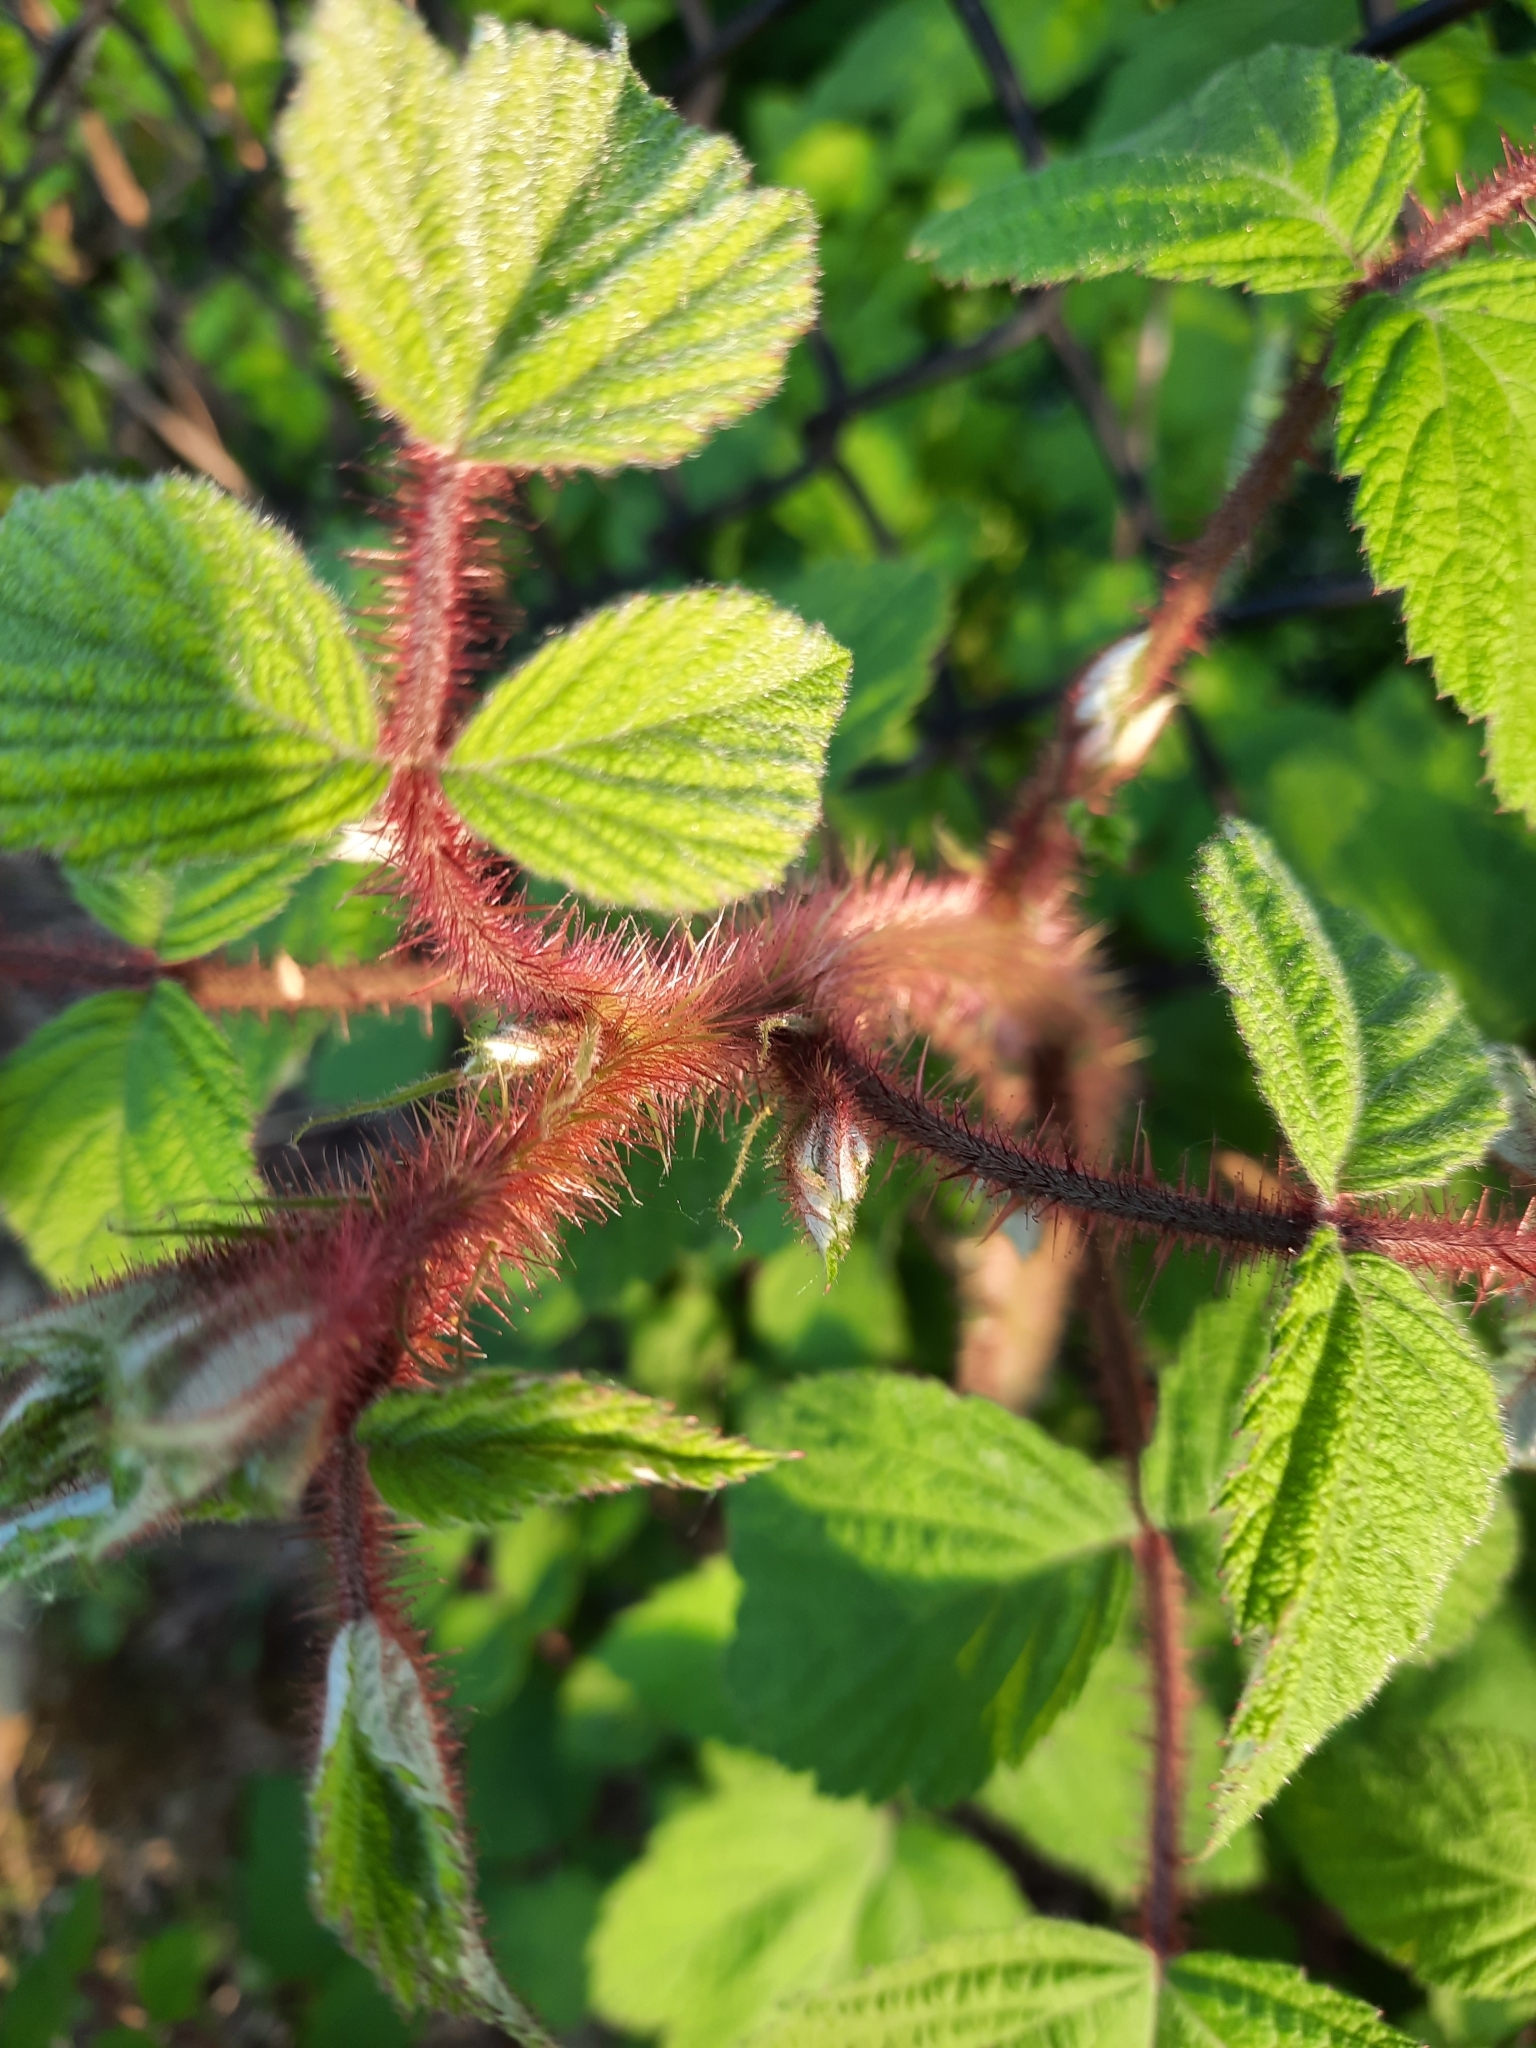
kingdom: Plantae
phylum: Tracheophyta
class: Magnoliopsida
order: Rosales
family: Rosaceae
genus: Rubus
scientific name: Rubus phoenicolasius
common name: Japanese wineberry
